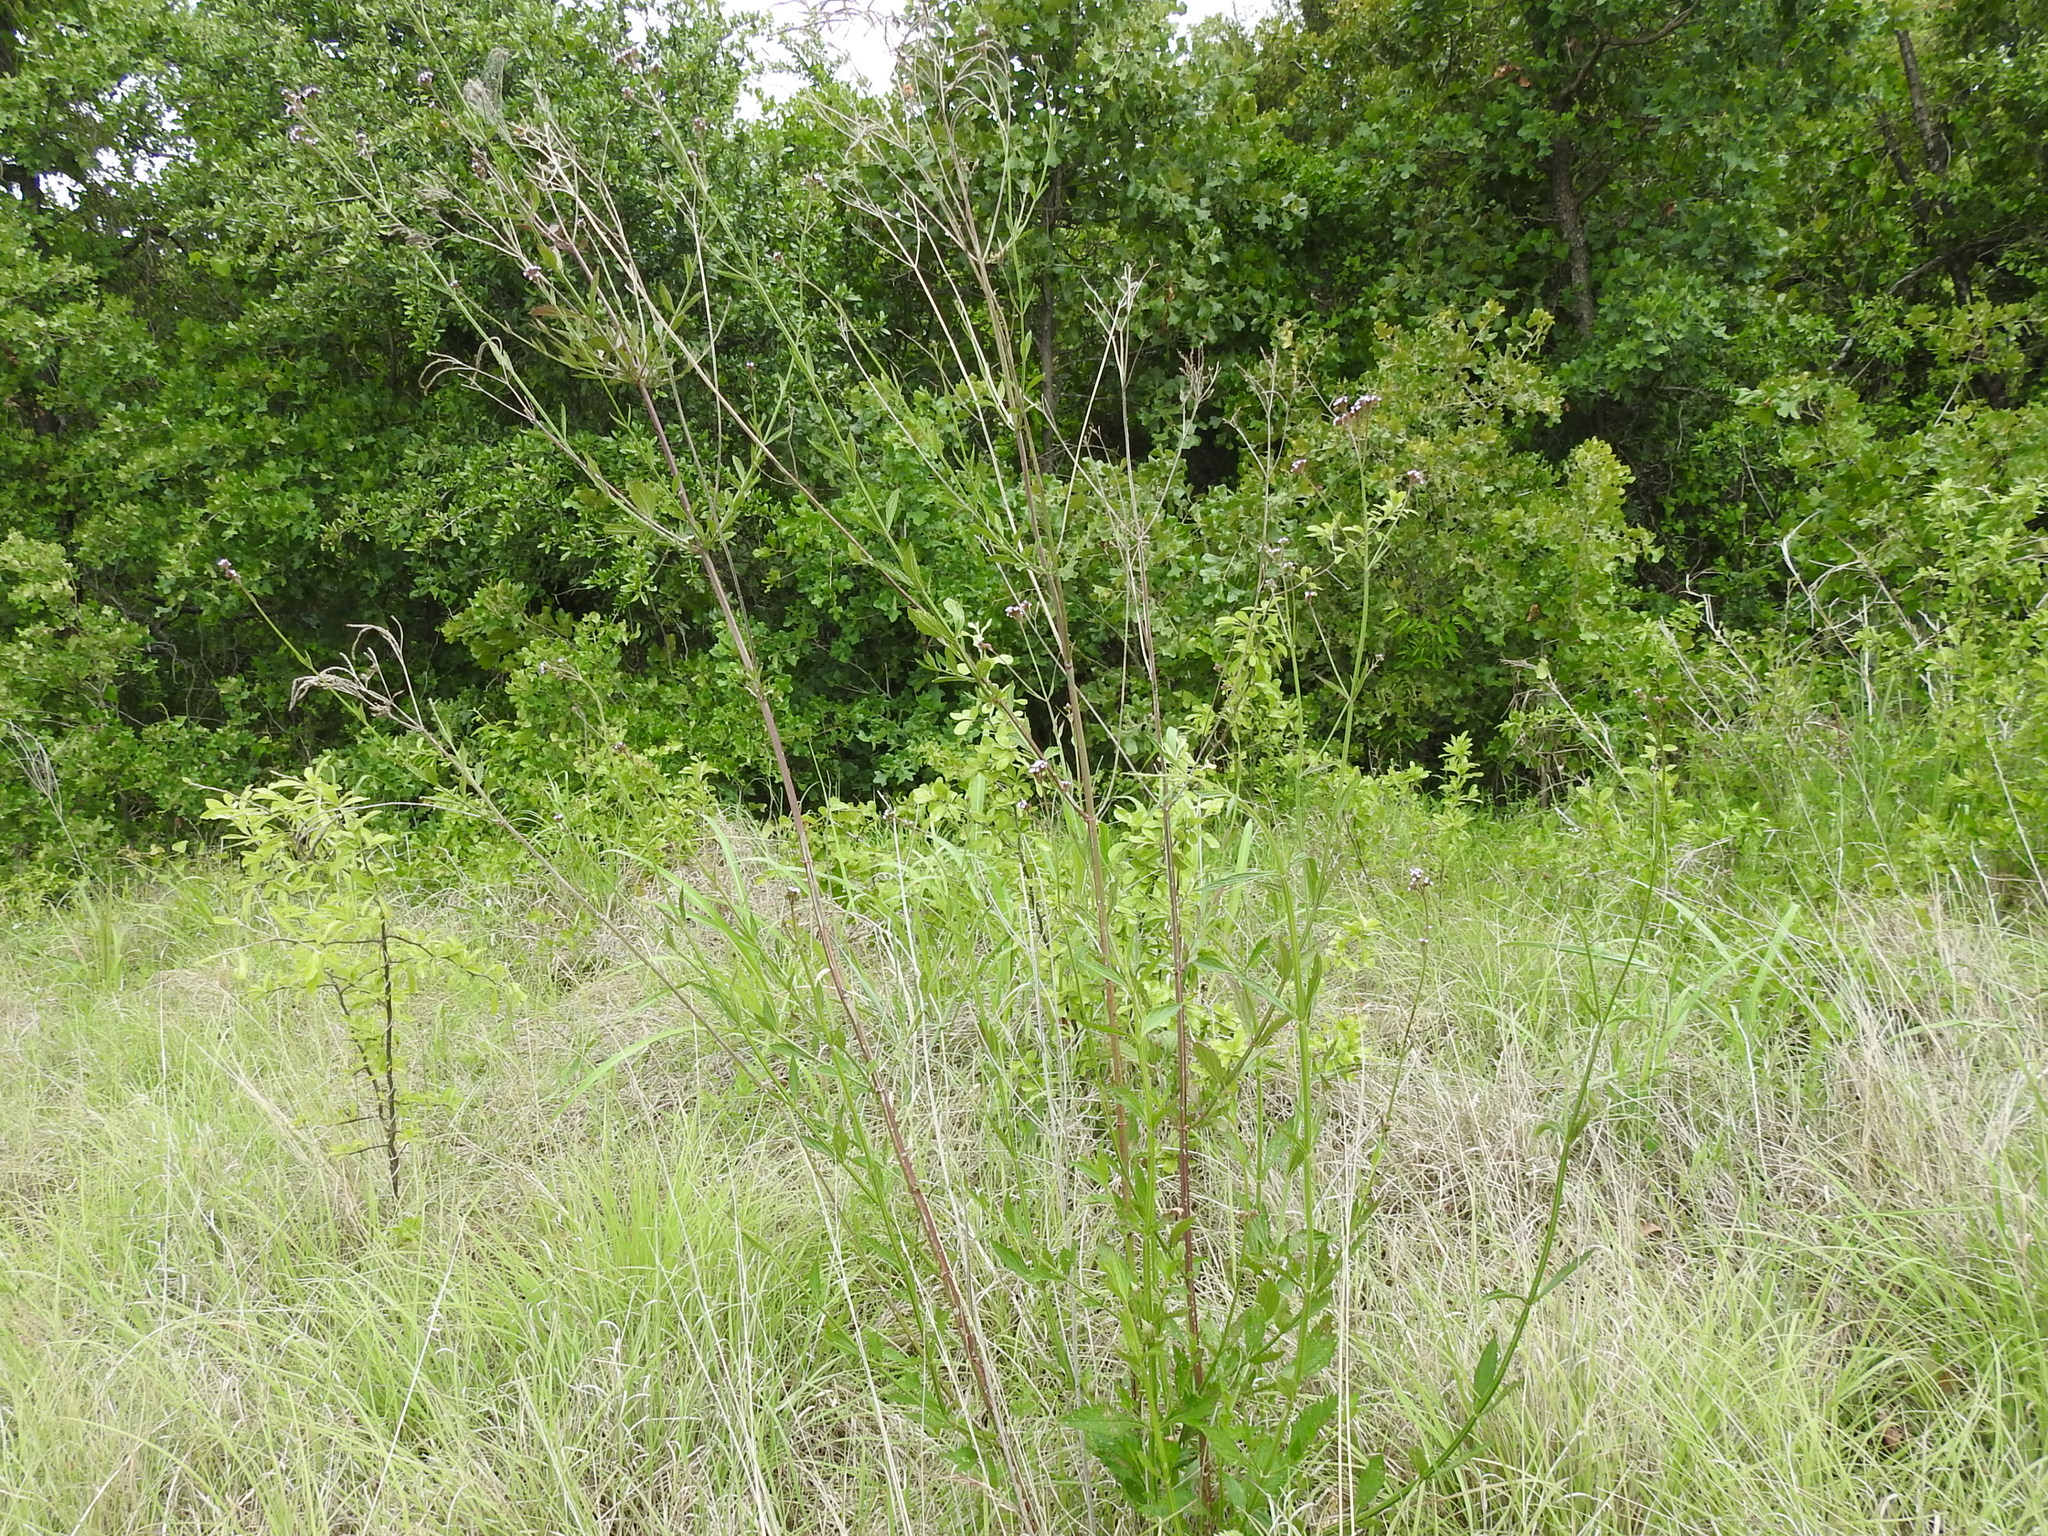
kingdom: Plantae
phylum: Tracheophyta
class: Magnoliopsida
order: Lamiales
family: Verbenaceae
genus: Verbena
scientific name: Verbena brasiliensis
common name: Brazilian vervain
